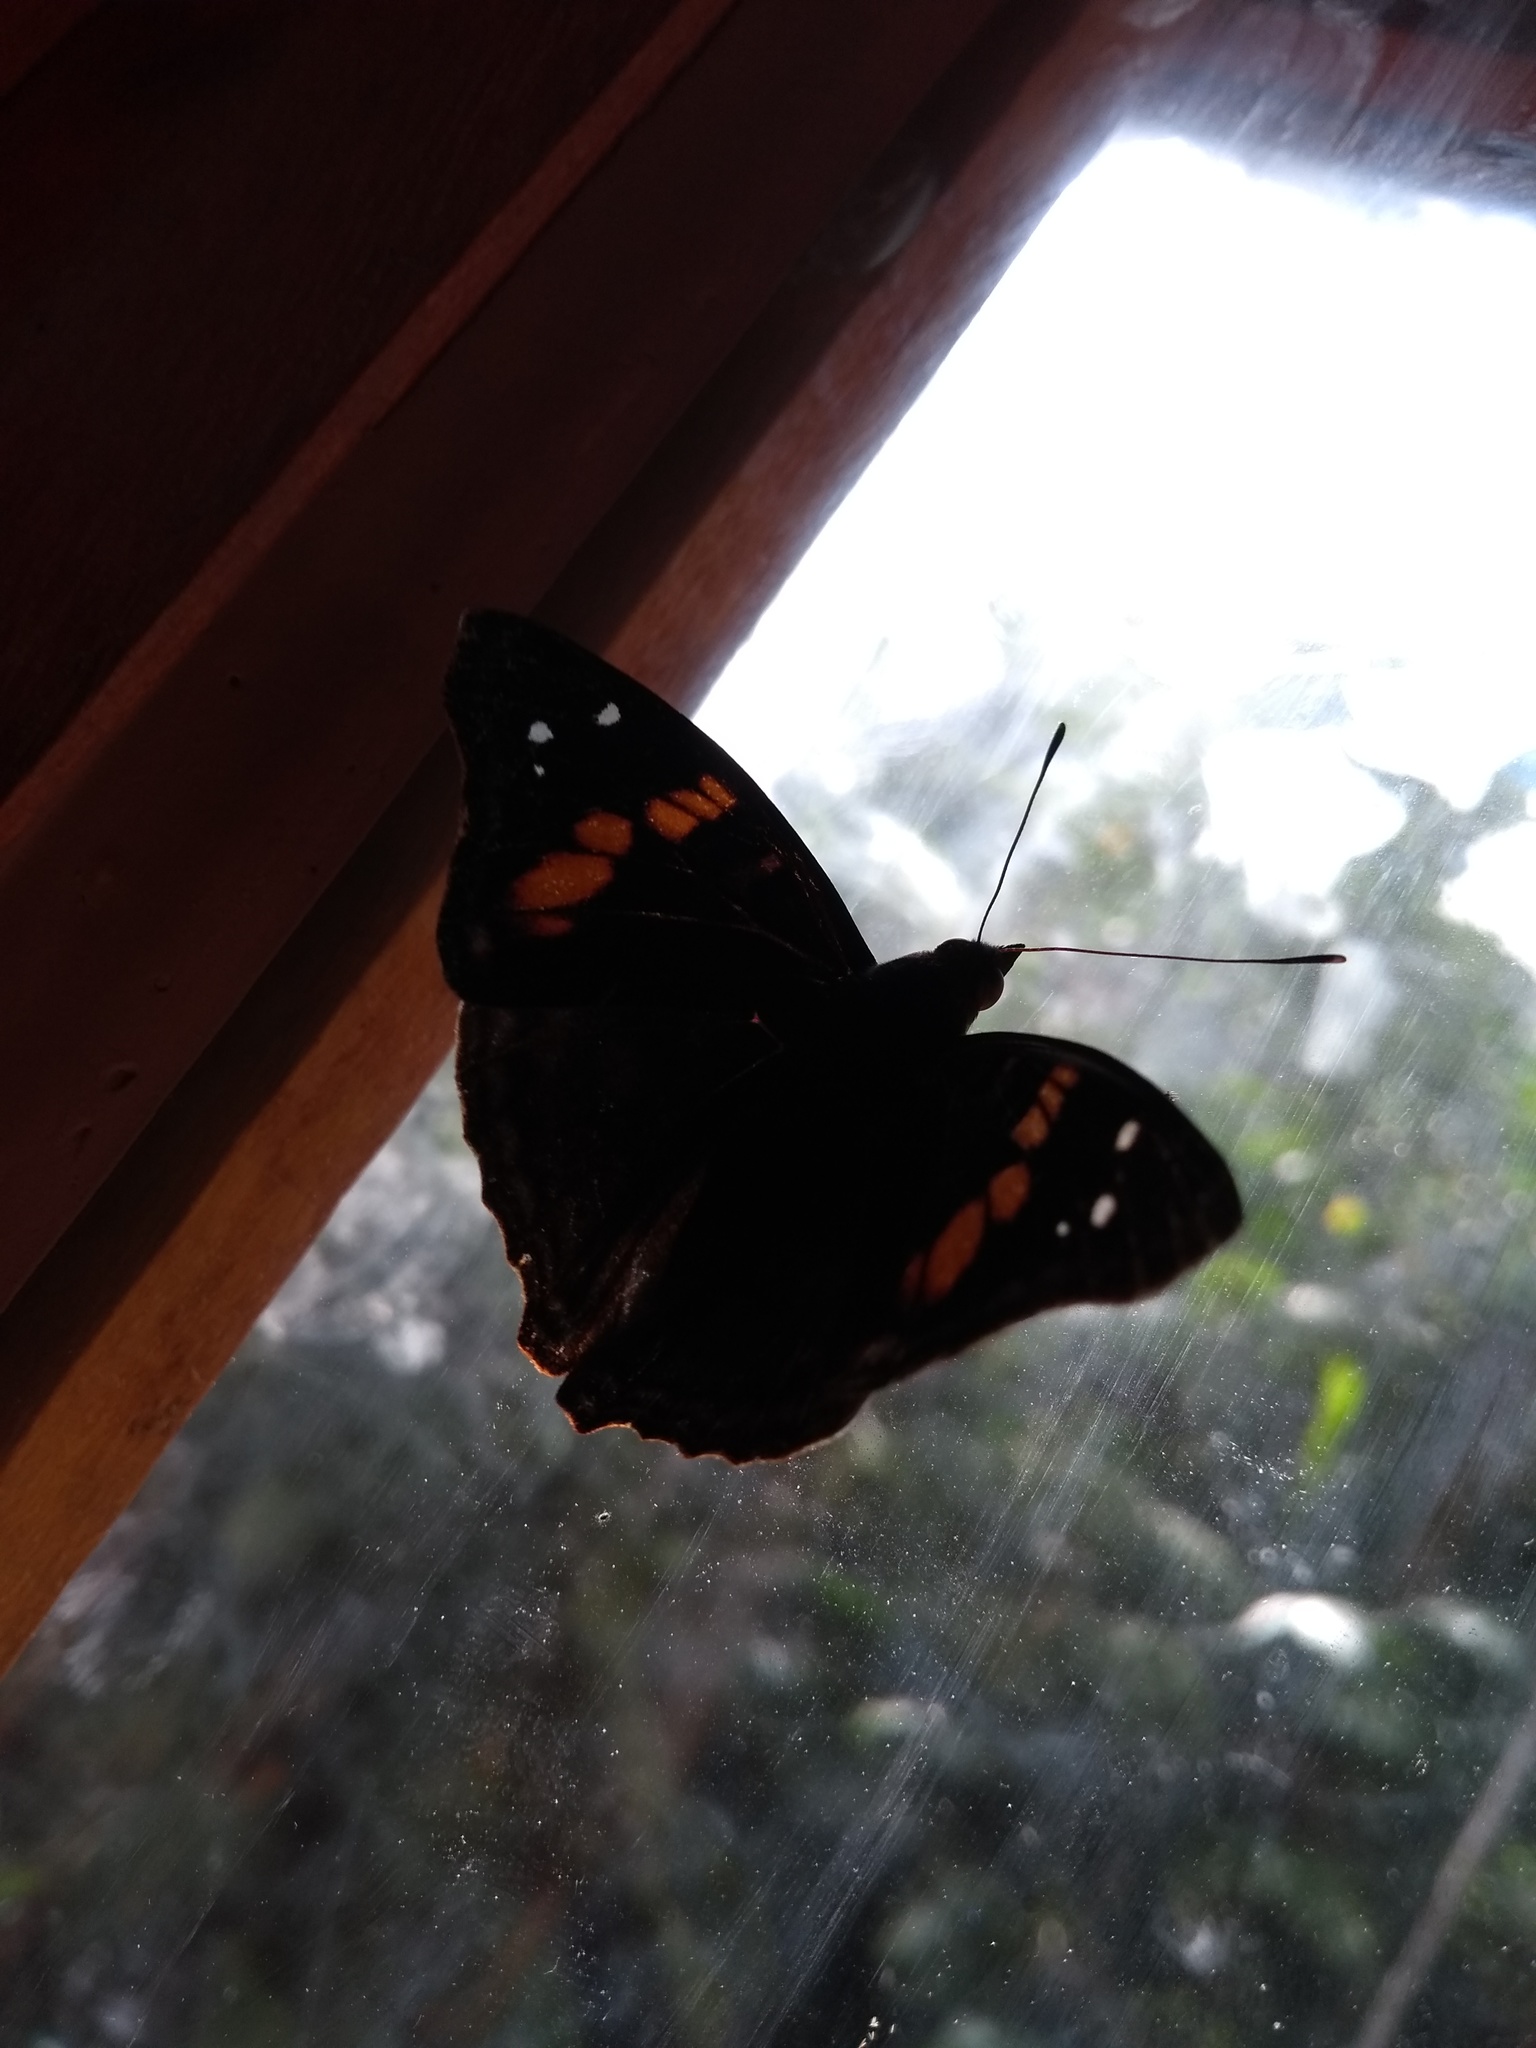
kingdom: Animalia
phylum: Arthropoda
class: Insecta
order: Lepidoptera
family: Nymphalidae
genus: Doxocopa
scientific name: Doxocopa agathina
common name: Agathina emperor
